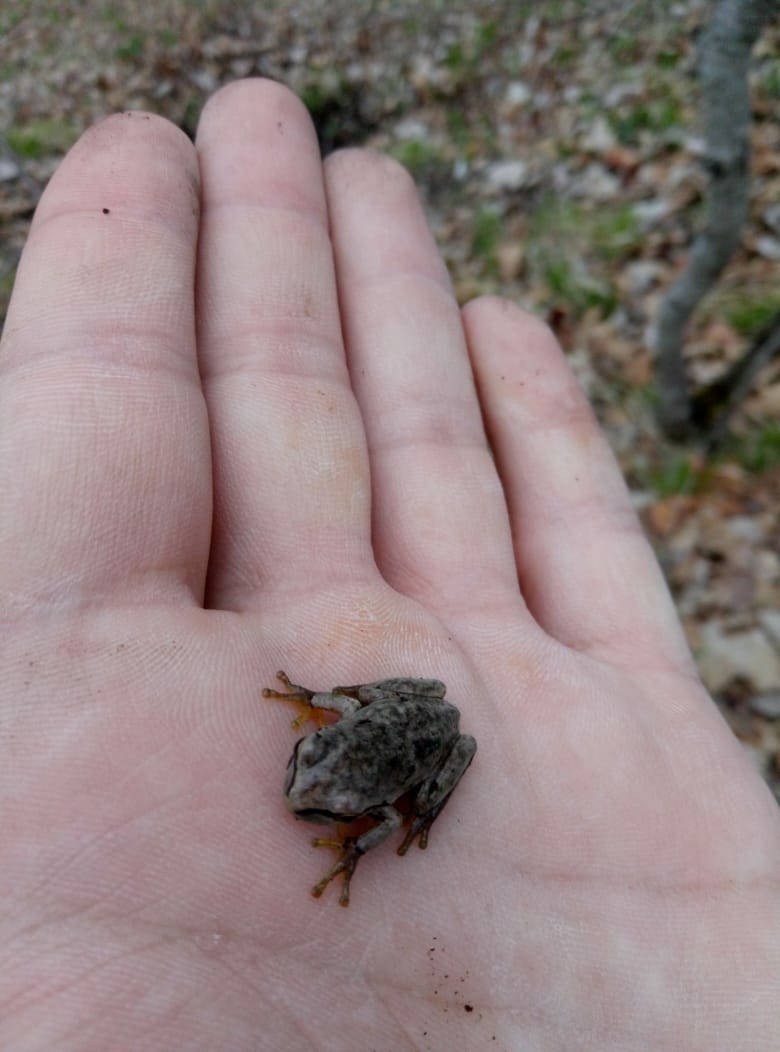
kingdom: Animalia
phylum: Chordata
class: Amphibia
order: Anura
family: Hylidae
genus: Hyla
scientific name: Hyla orientalis
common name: Caucasian treefrog
